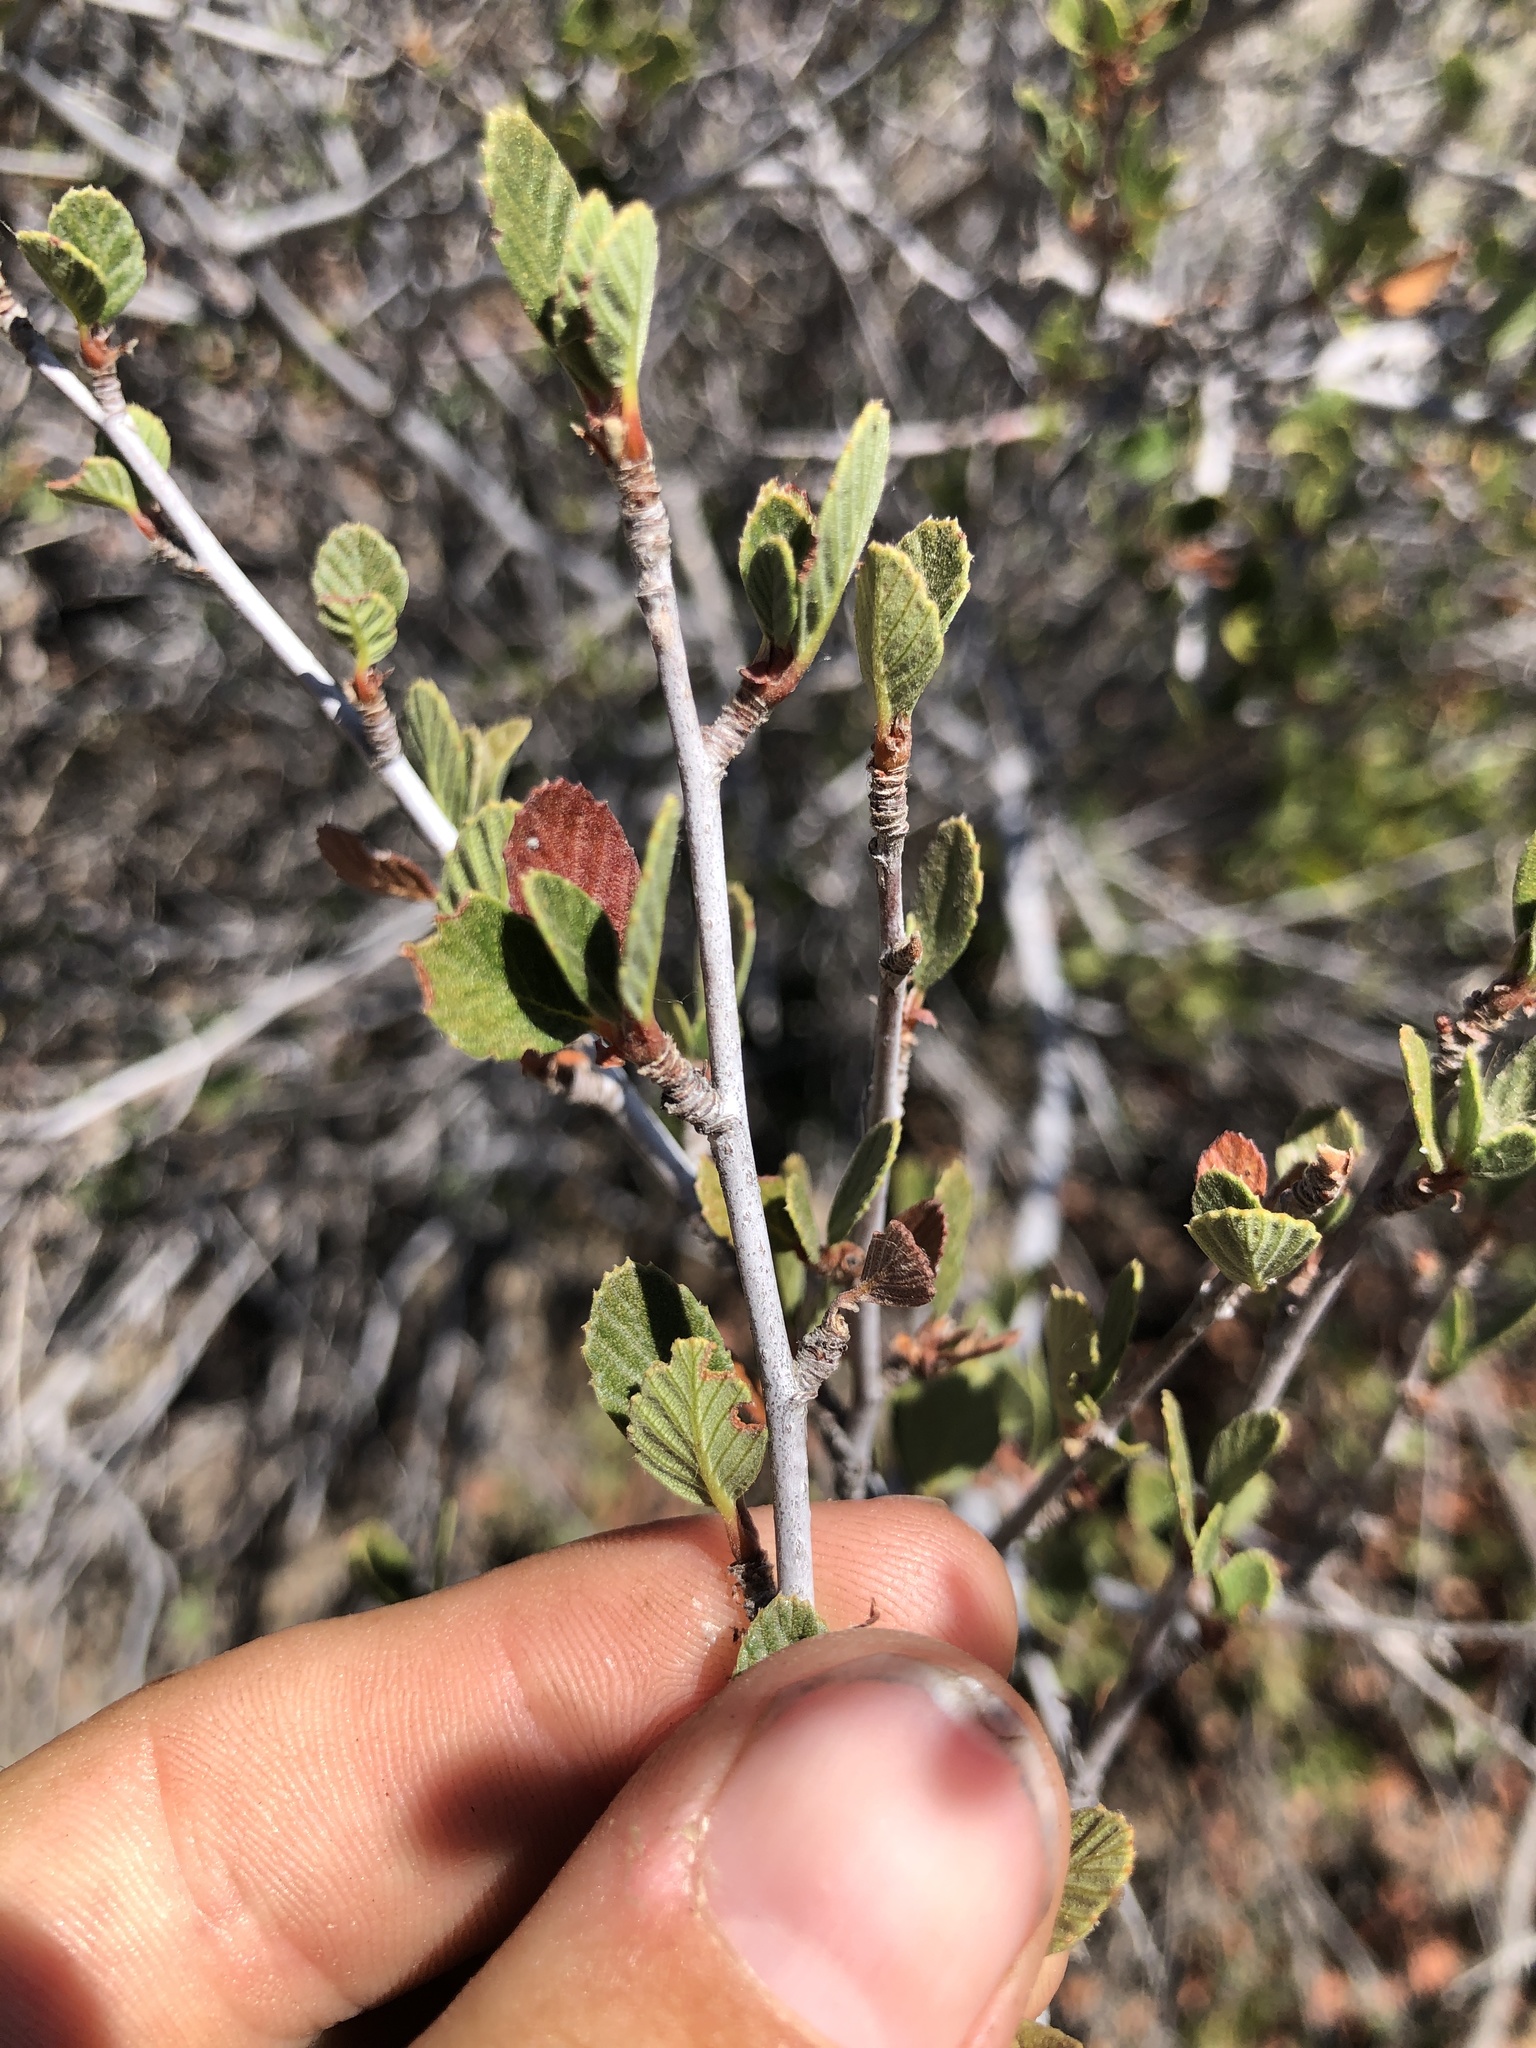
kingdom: Plantae
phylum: Tracheophyta
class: Magnoliopsida
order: Rosales
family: Rosaceae
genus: Cercocarpus
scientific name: Cercocarpus betuloides
